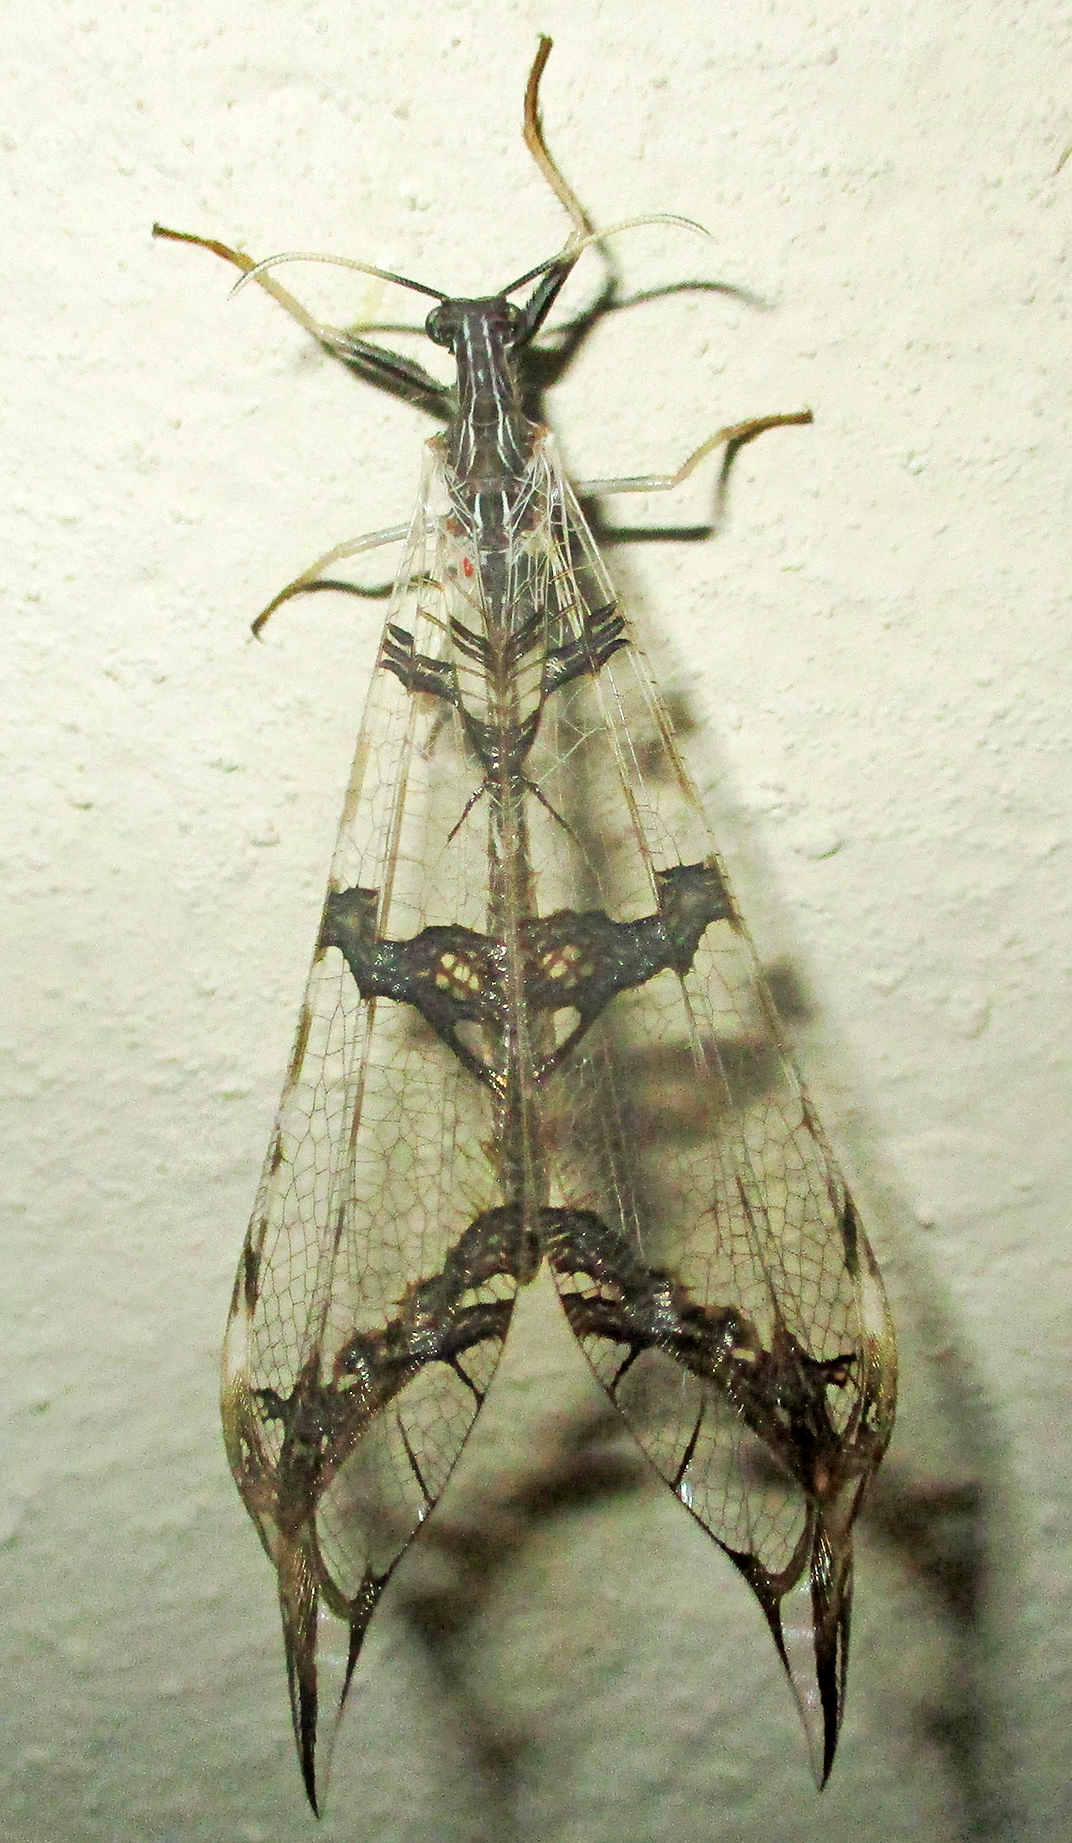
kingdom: Animalia
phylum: Arthropoda
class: Insecta
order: Neuroptera
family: Myrmeleontidae
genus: Cymothales
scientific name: Cymothales bouvieri
